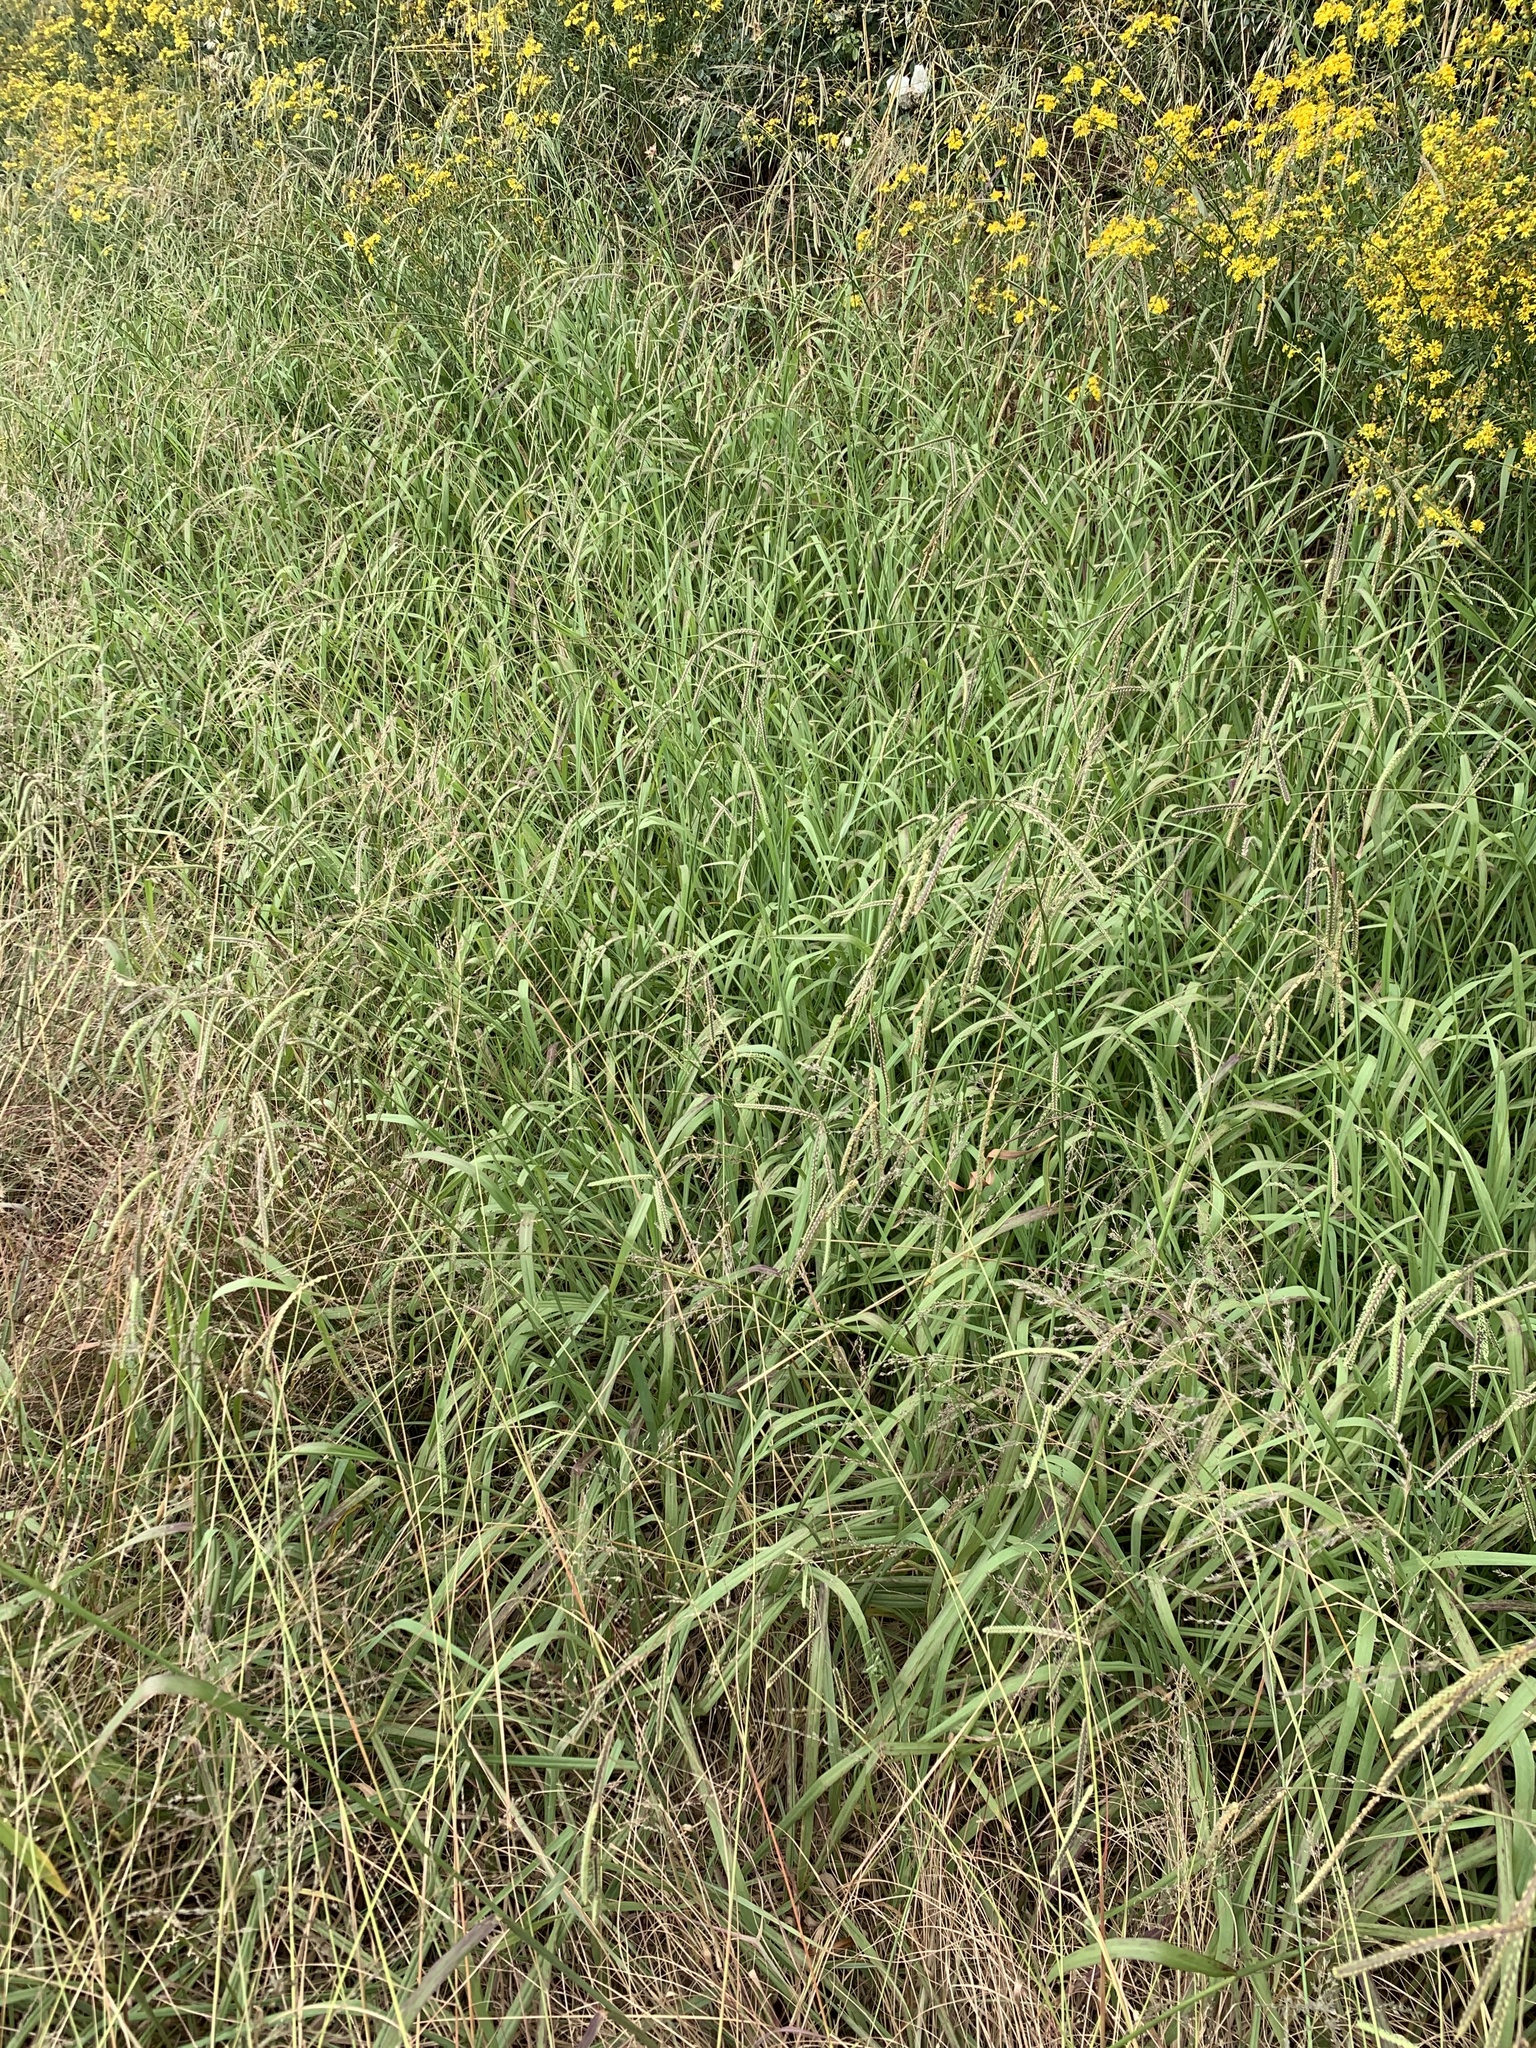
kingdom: Plantae
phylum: Tracheophyta
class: Liliopsida
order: Poales
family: Poaceae
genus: Paspalum
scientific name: Paspalum dilatatum
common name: Dallisgrass
